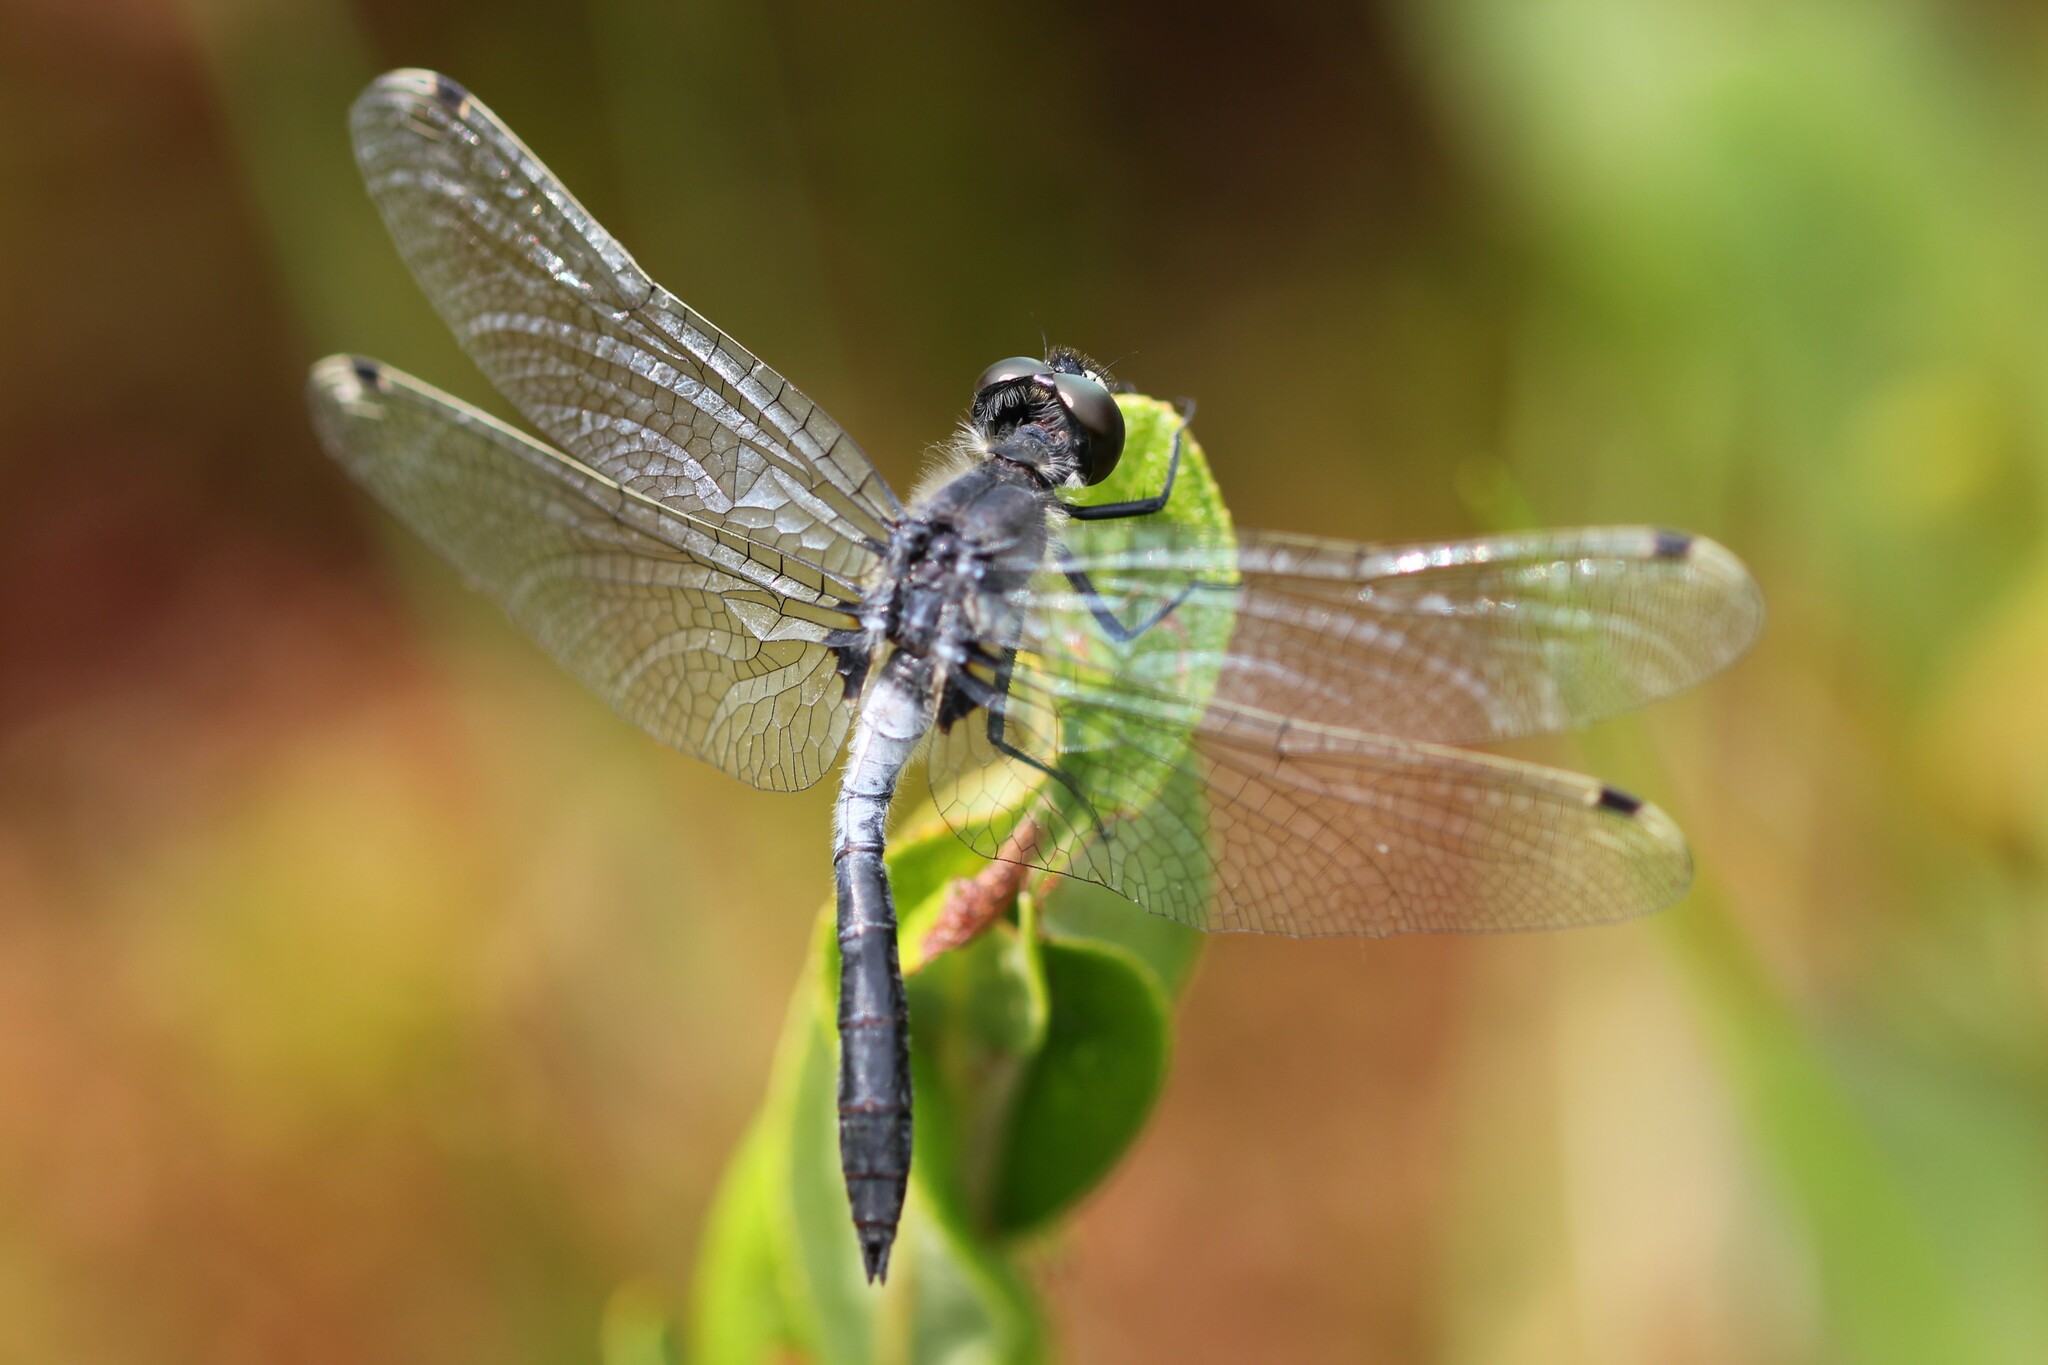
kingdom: Animalia
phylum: Arthropoda
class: Insecta
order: Odonata
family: Libellulidae
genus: Leucorrhinia
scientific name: Leucorrhinia frigida
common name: Frosted whiteface
